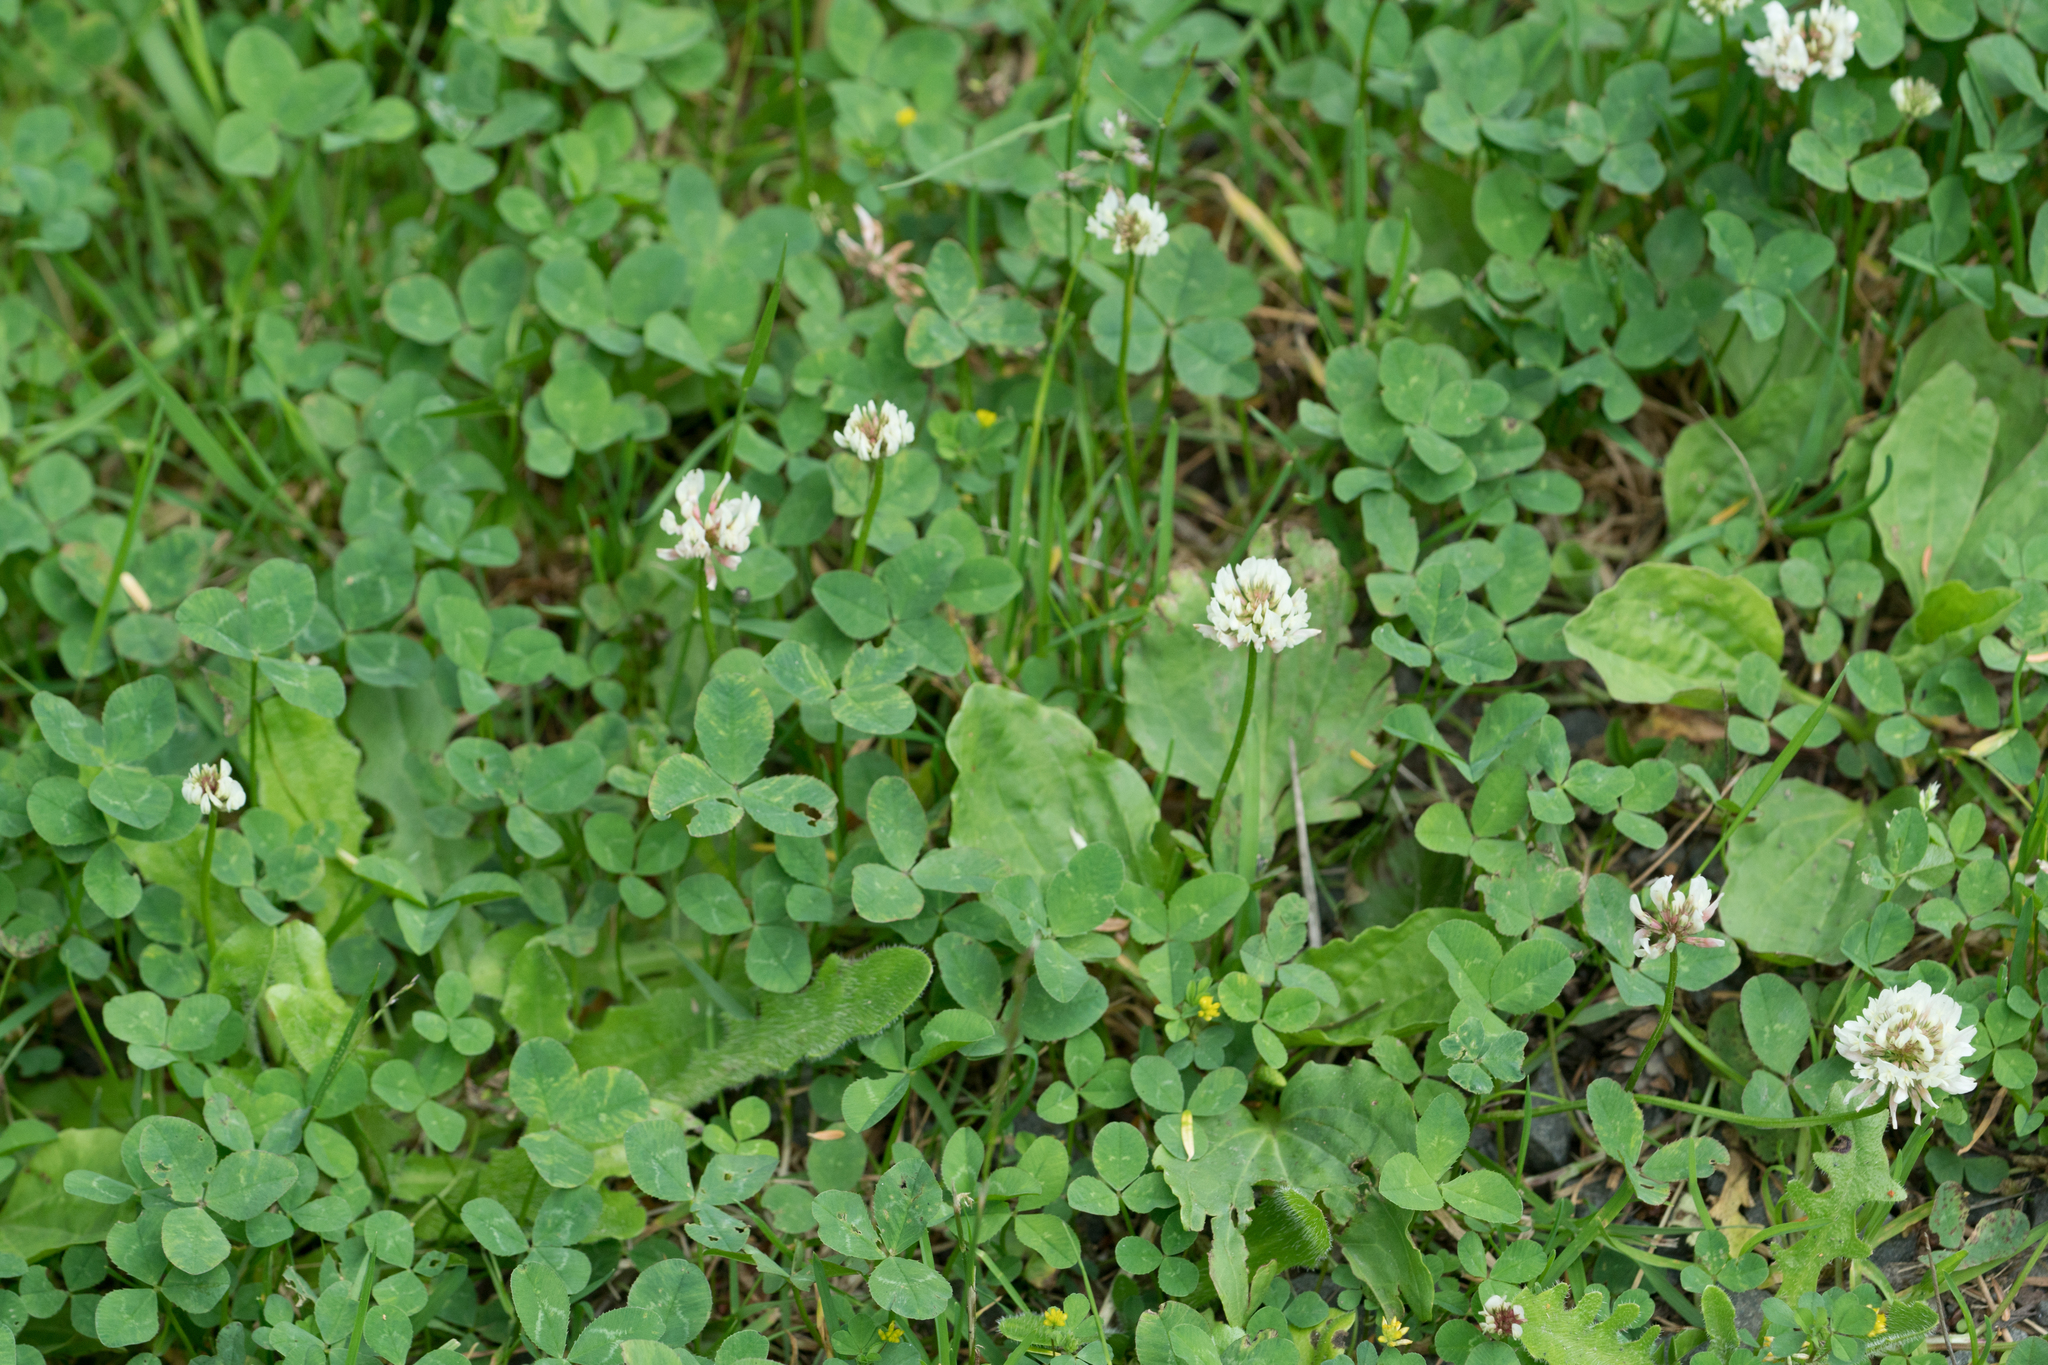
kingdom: Plantae
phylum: Tracheophyta
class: Magnoliopsida
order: Fabales
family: Fabaceae
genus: Trifolium
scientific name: Trifolium repens
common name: White clover
